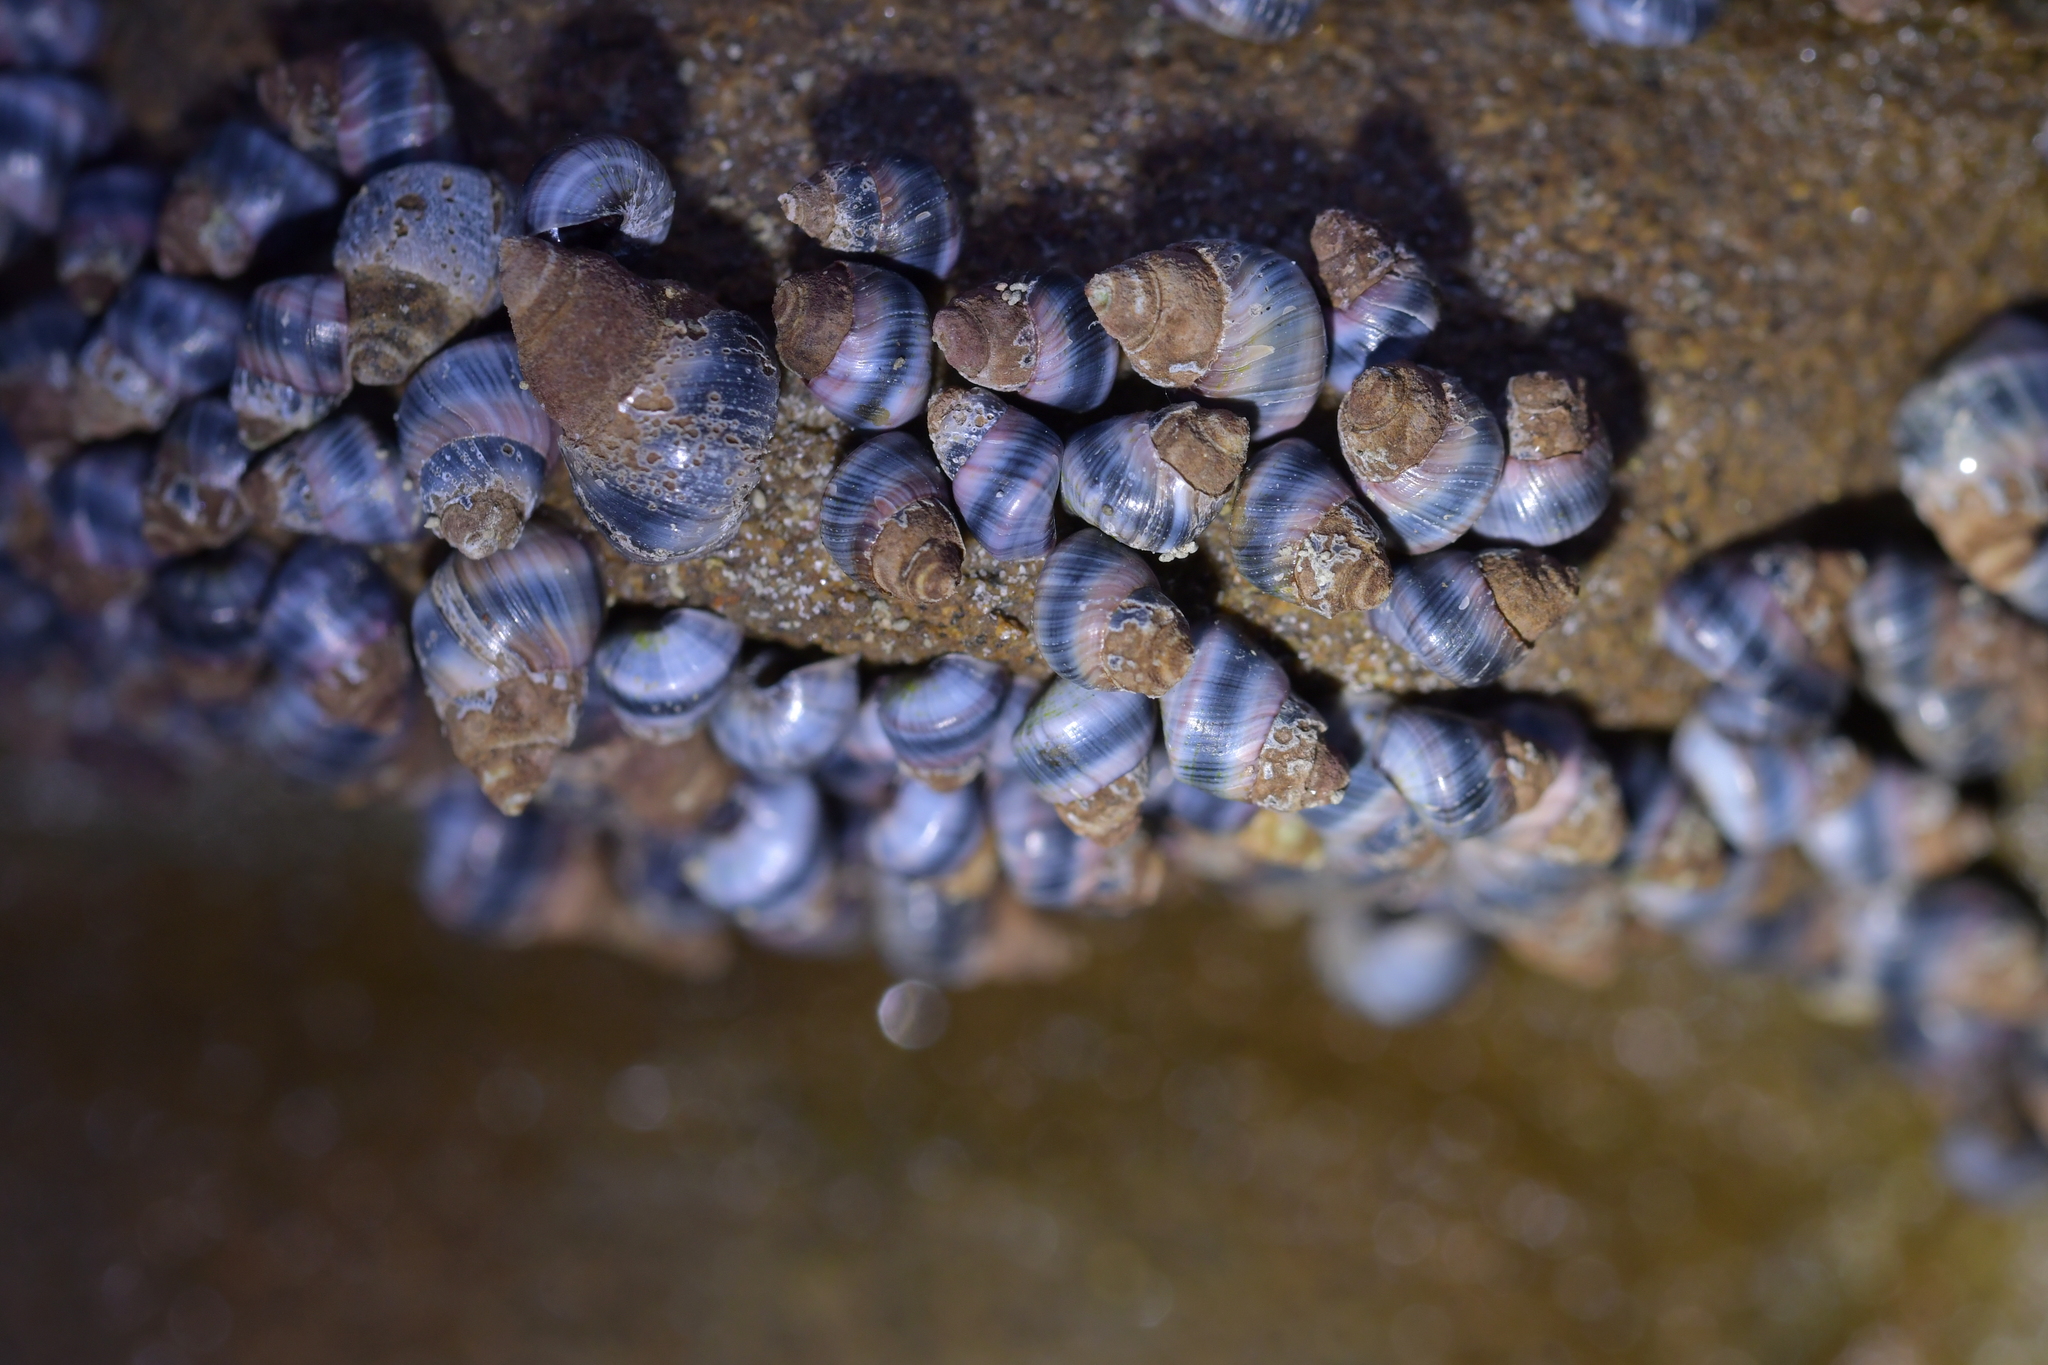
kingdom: Animalia
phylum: Mollusca
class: Gastropoda
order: Littorinimorpha
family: Littorinidae
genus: Austrolittorina
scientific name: Austrolittorina antipodum
